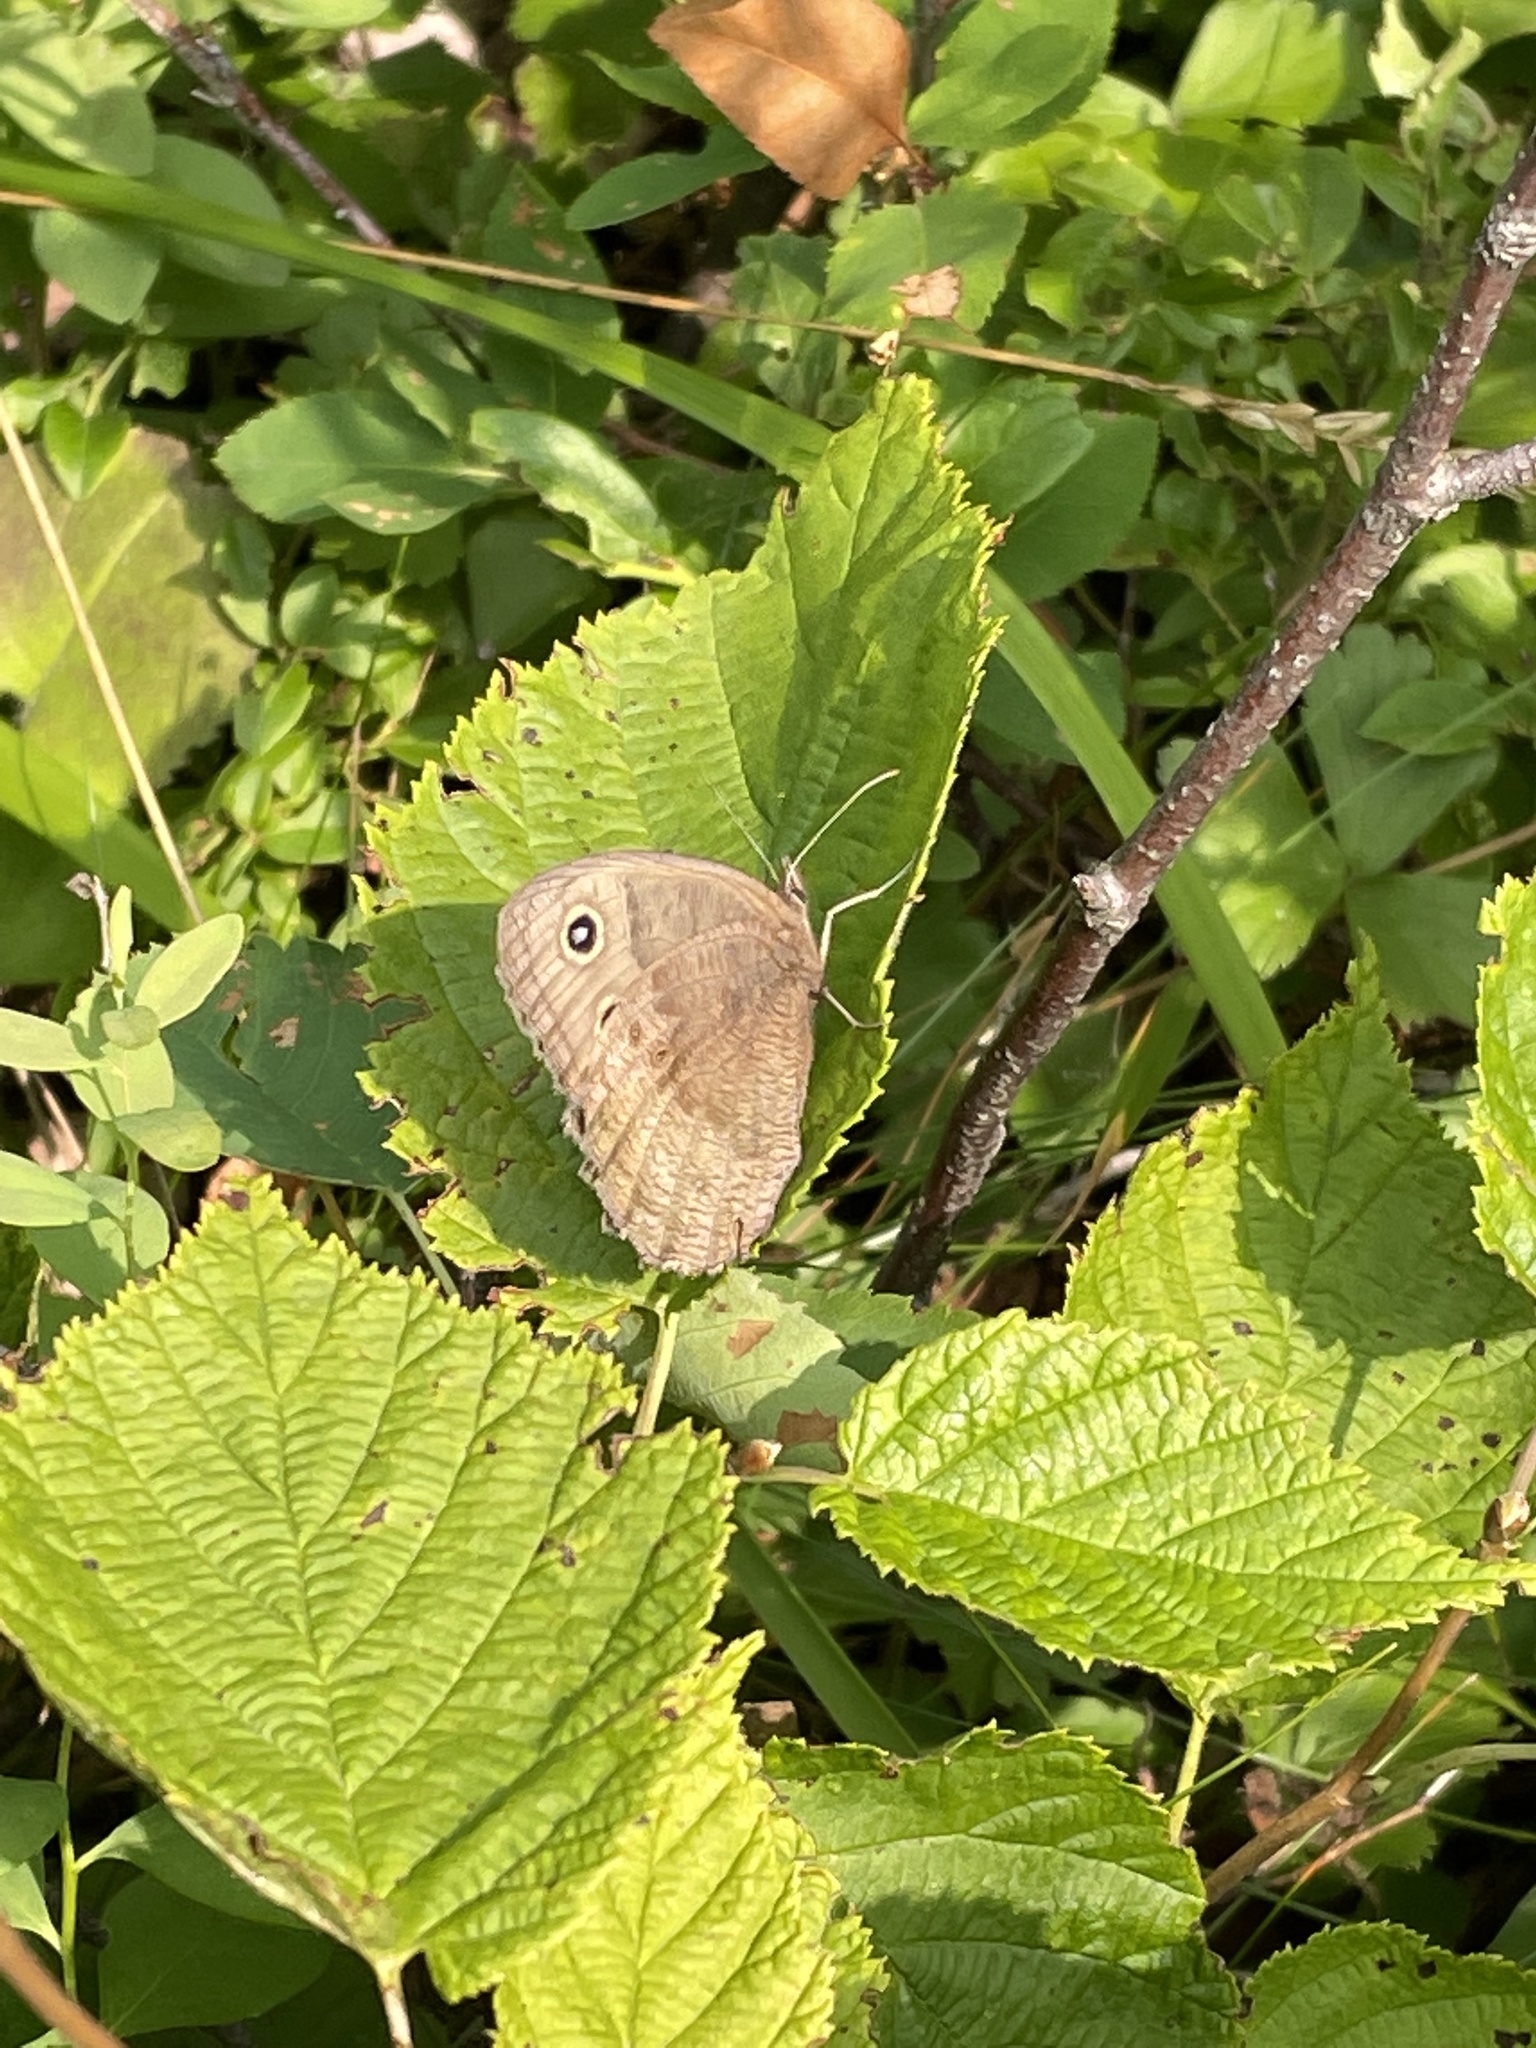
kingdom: Animalia
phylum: Arthropoda
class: Insecta
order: Lepidoptera
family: Nymphalidae
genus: Cercyonis
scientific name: Cercyonis pegala
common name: Common wood-nymph
